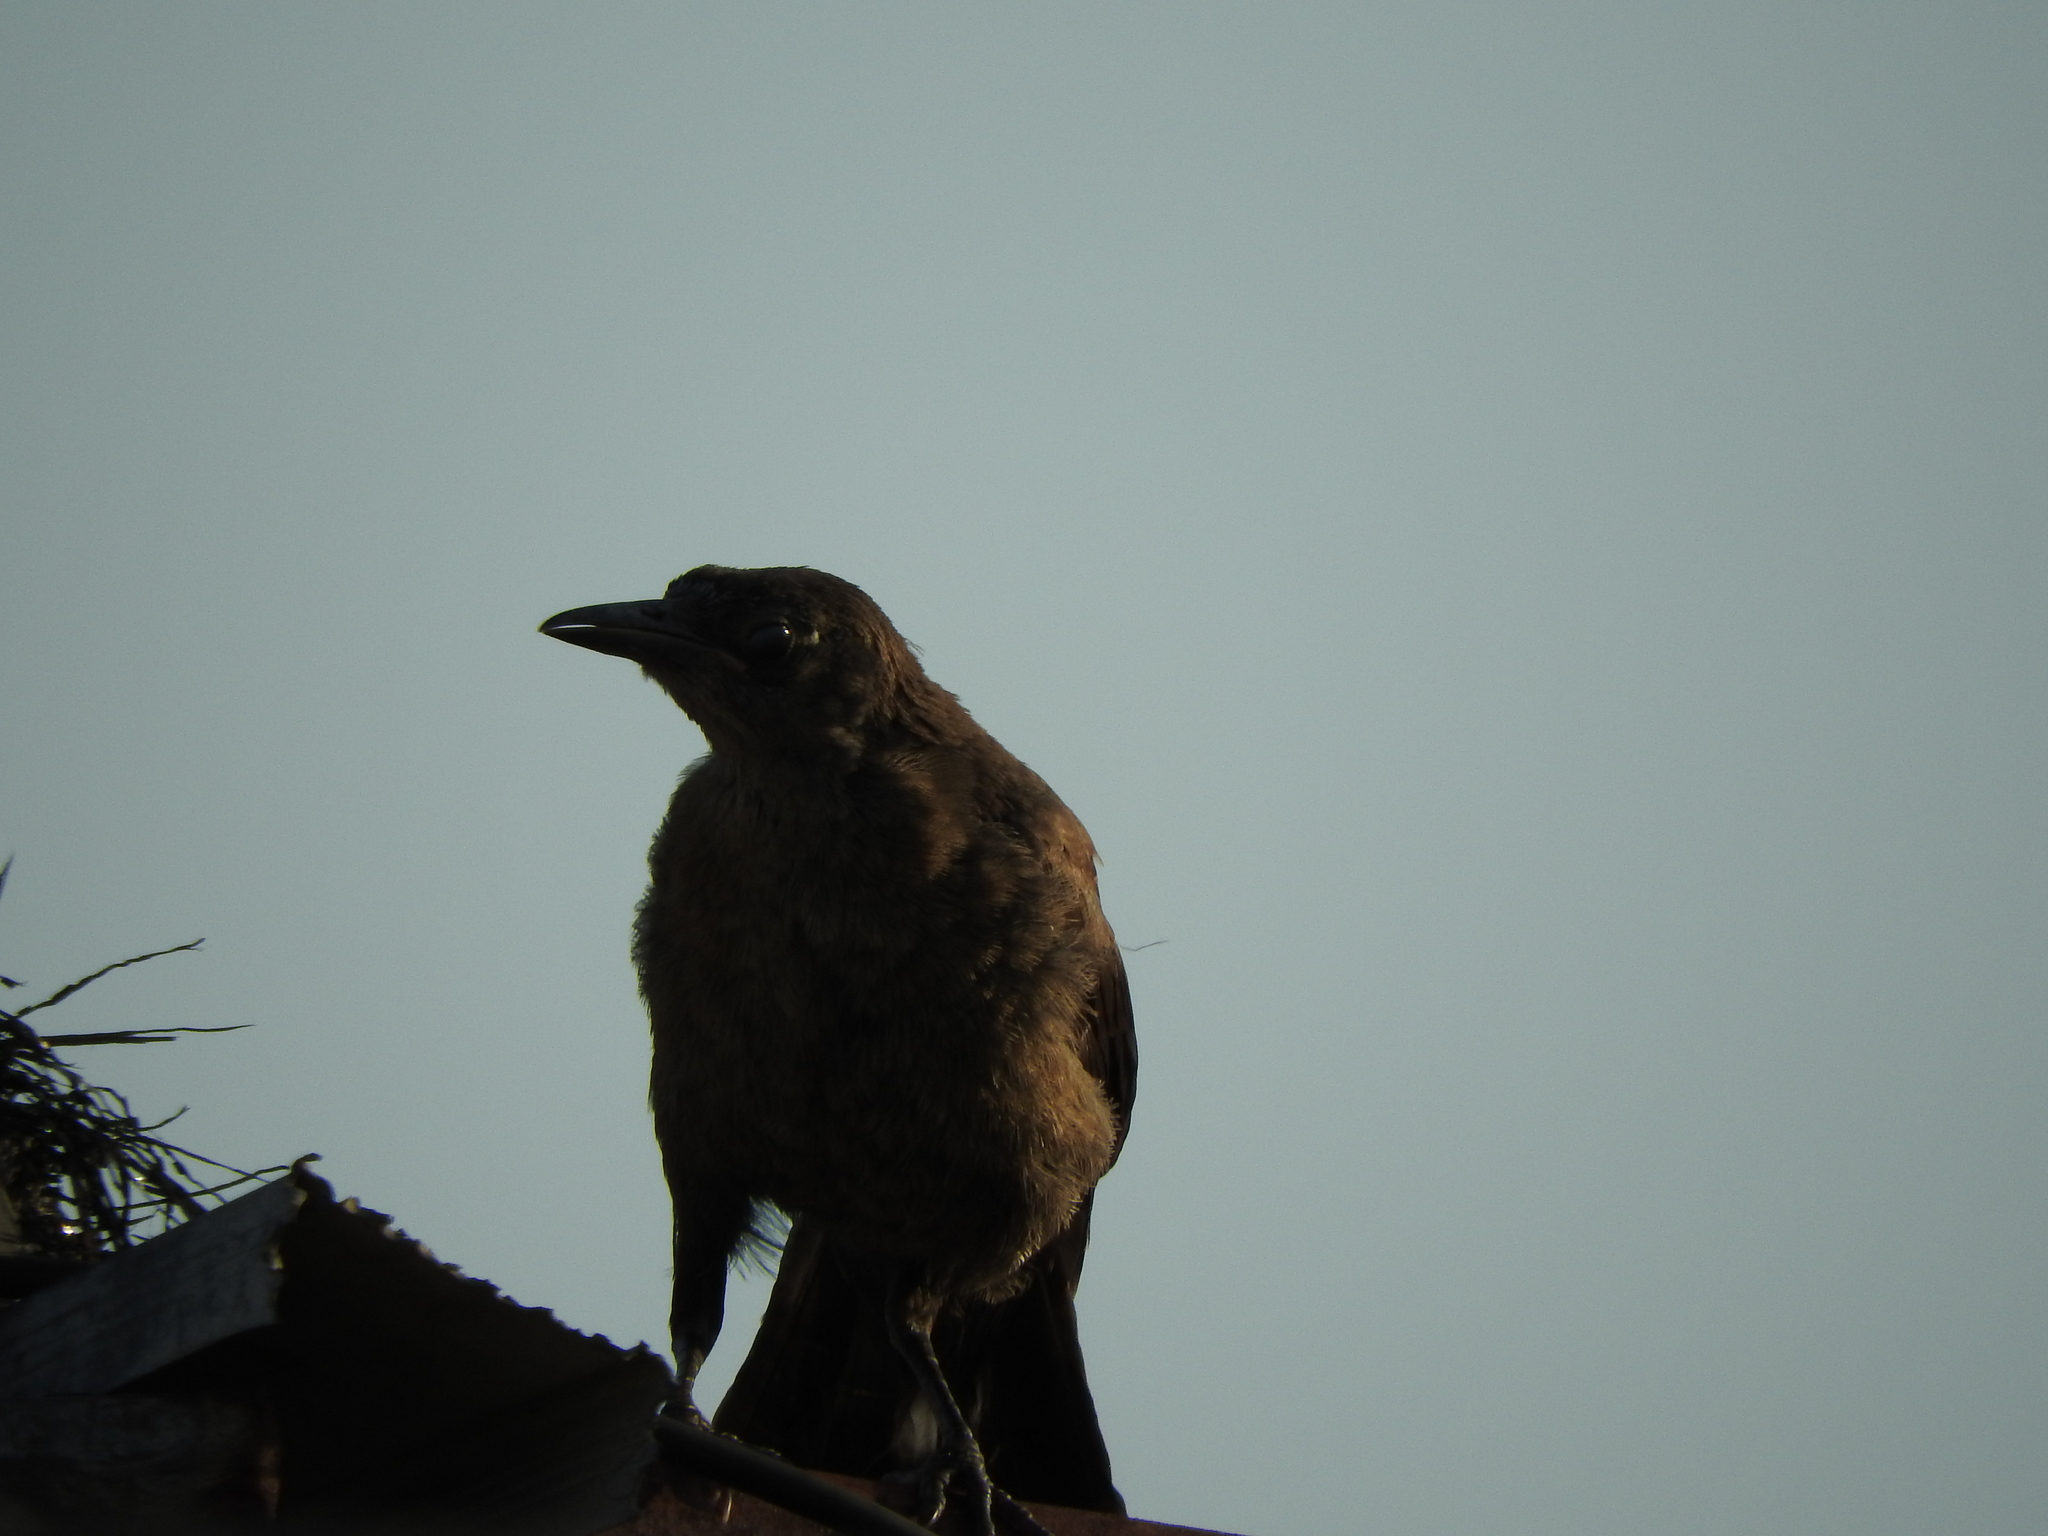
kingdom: Animalia
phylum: Chordata
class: Aves
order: Passeriformes
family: Icteridae
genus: Quiscalus
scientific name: Quiscalus mexicanus
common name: Great-tailed grackle
